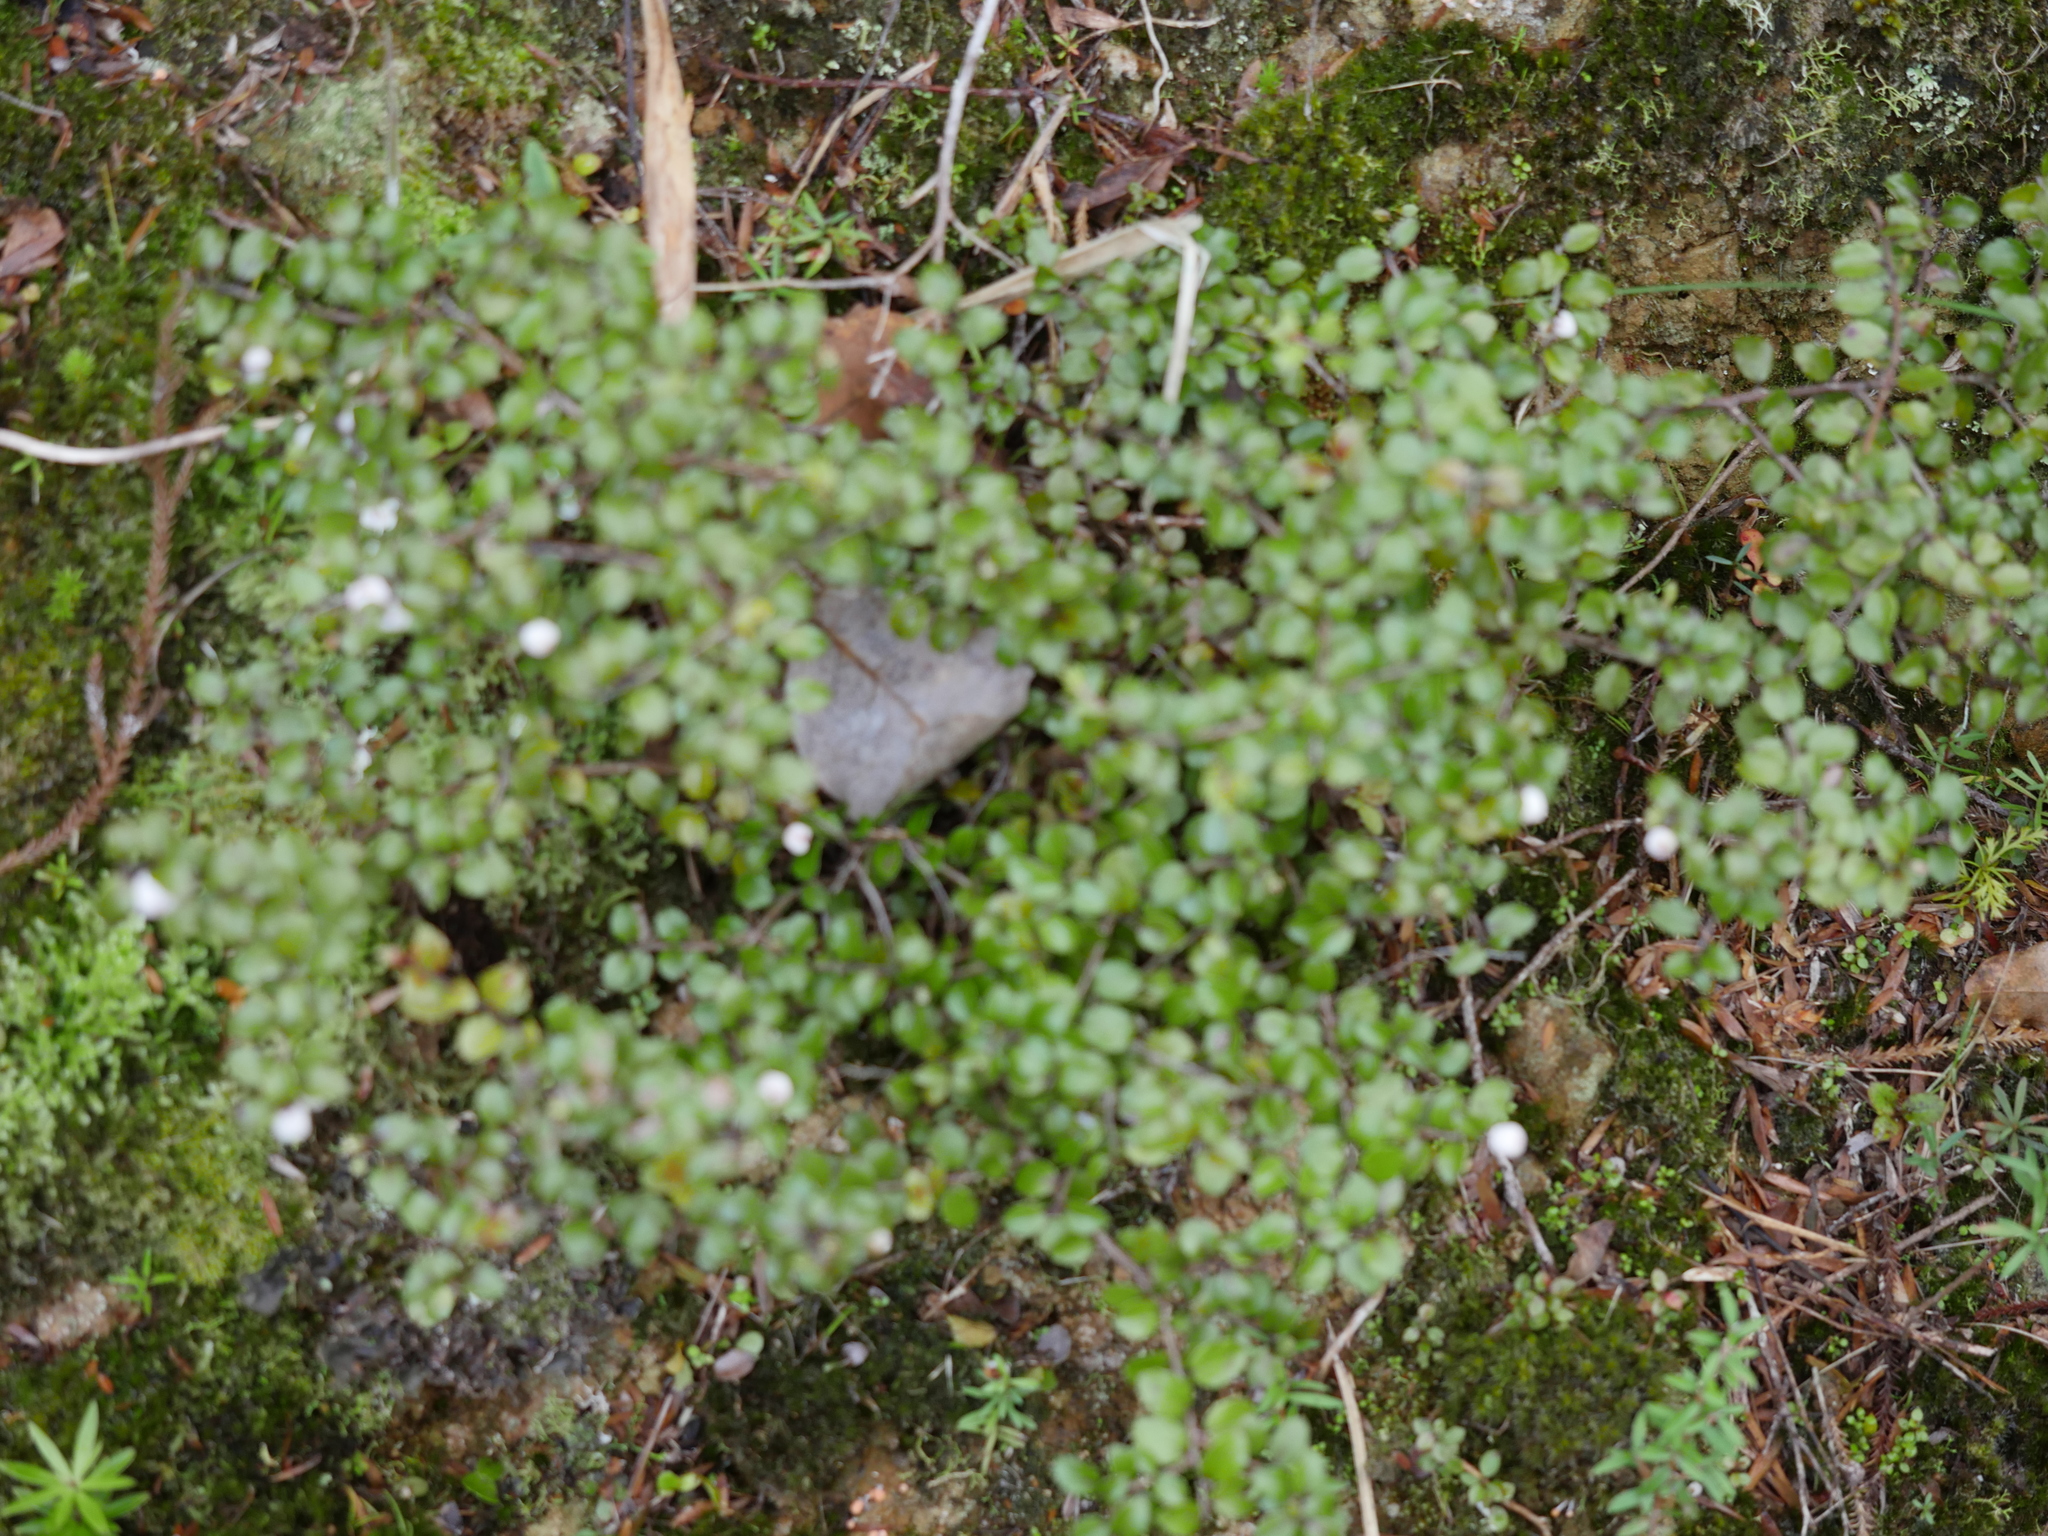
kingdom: Plantae
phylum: Tracheophyta
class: Magnoliopsida
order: Ericales
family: Ericaceae
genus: Gaultheria
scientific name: Gaultheria antipoda
